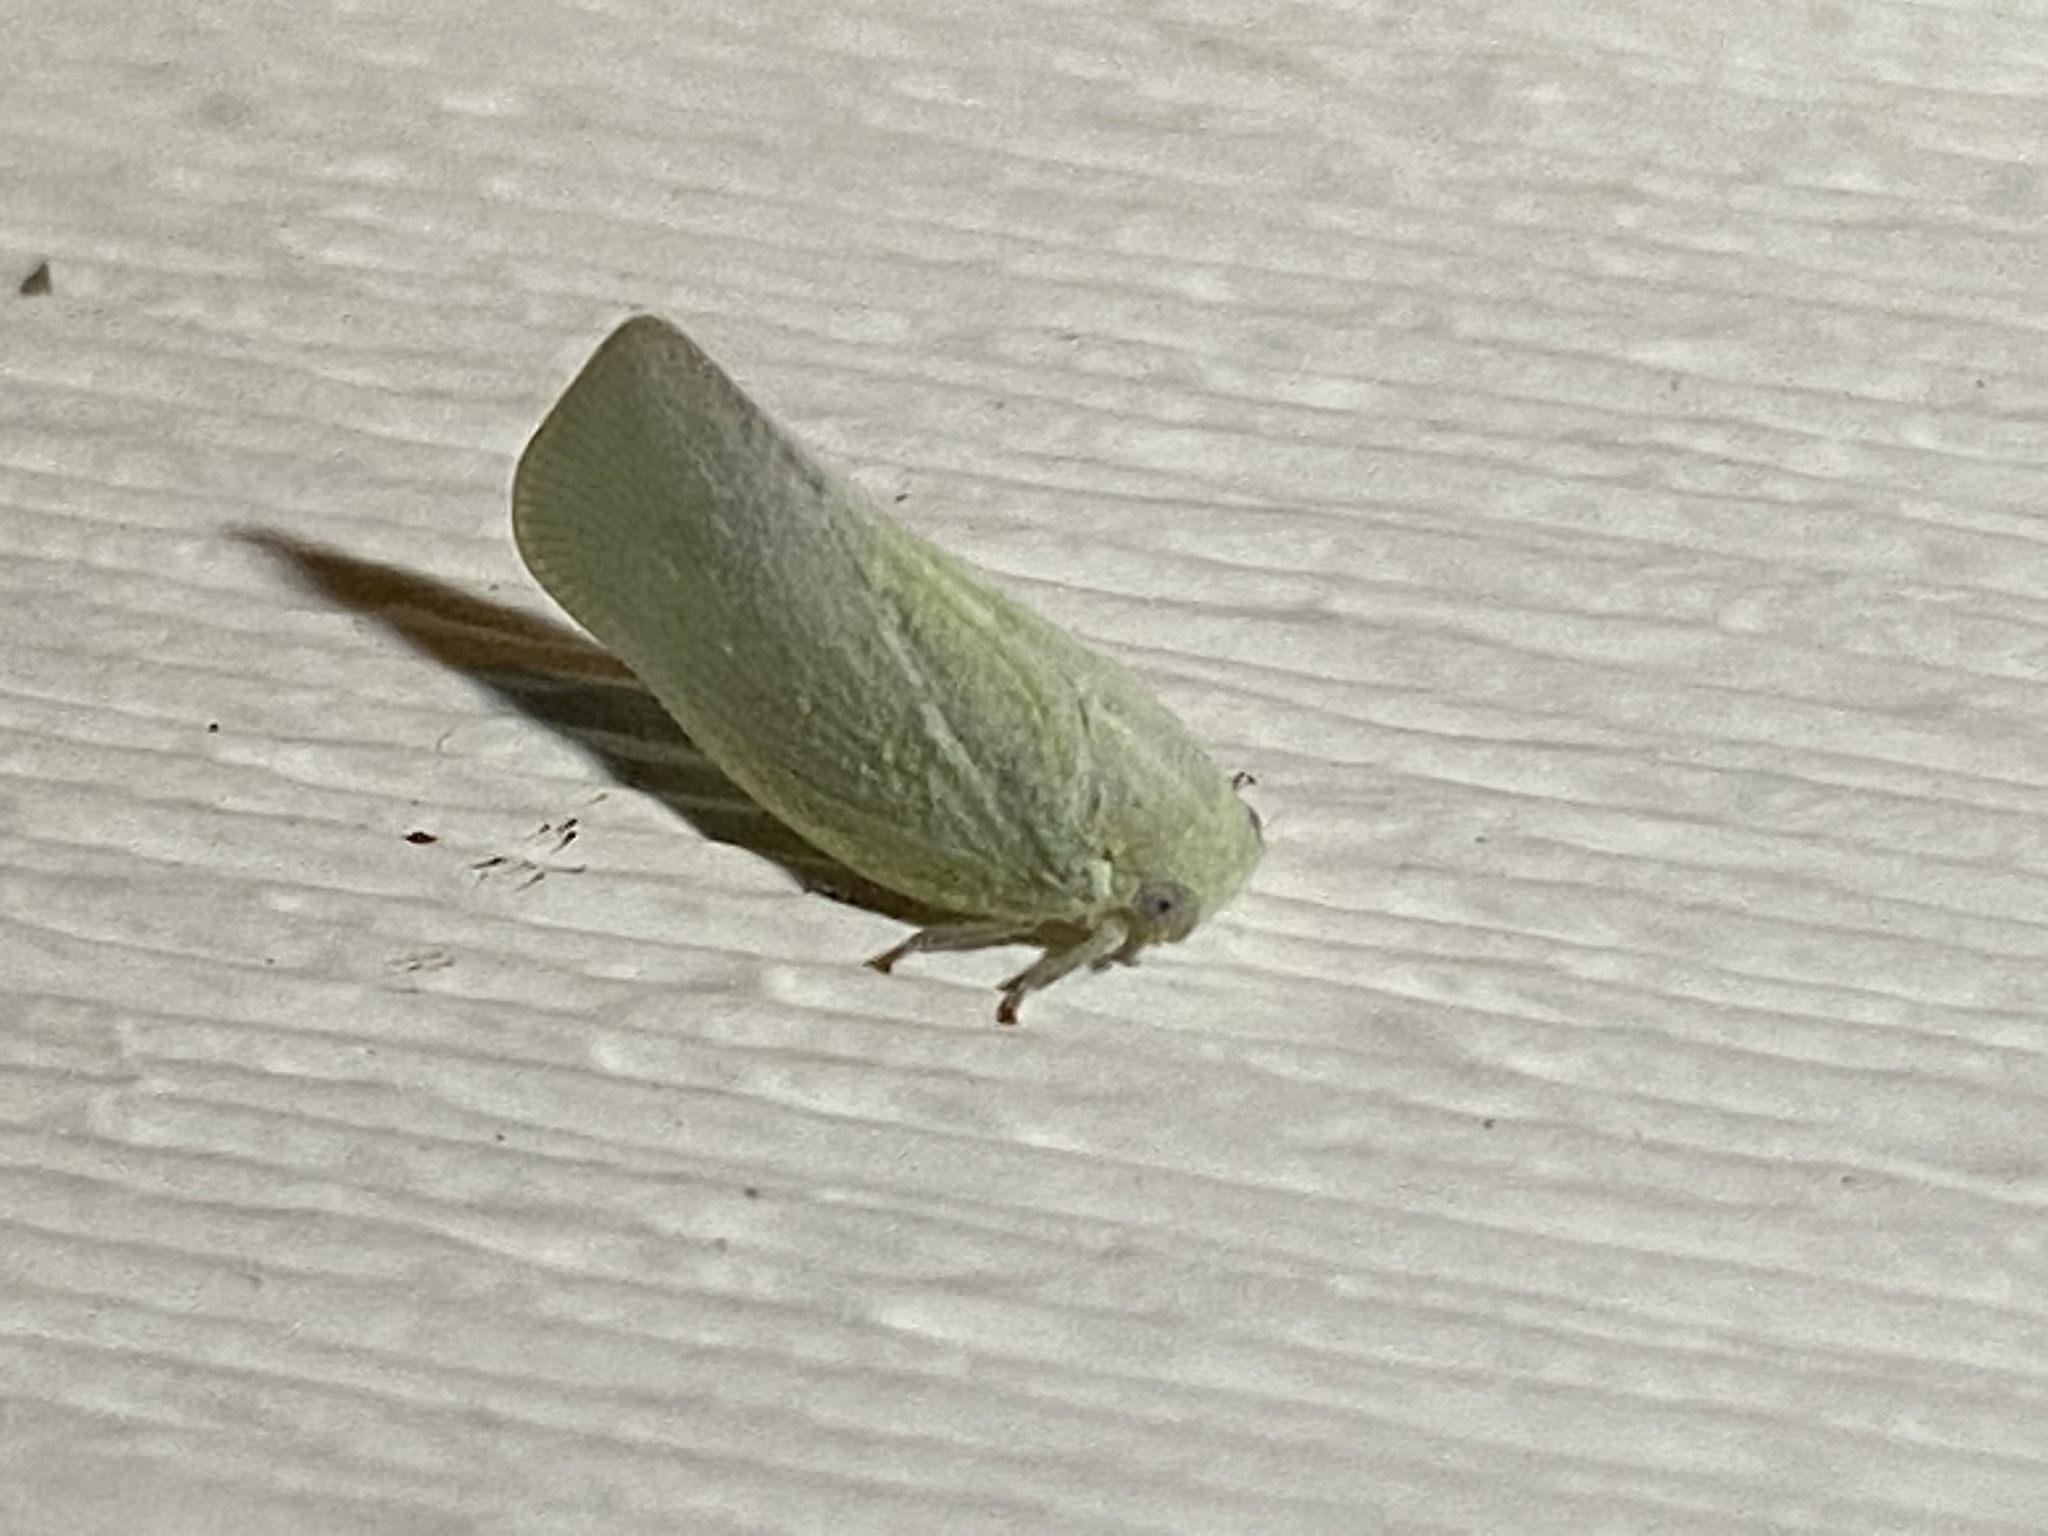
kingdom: Animalia
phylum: Arthropoda
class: Insecta
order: Hemiptera
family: Flatidae
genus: Flatormenis
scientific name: Flatormenis proxima
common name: Northern flatid planthopper
